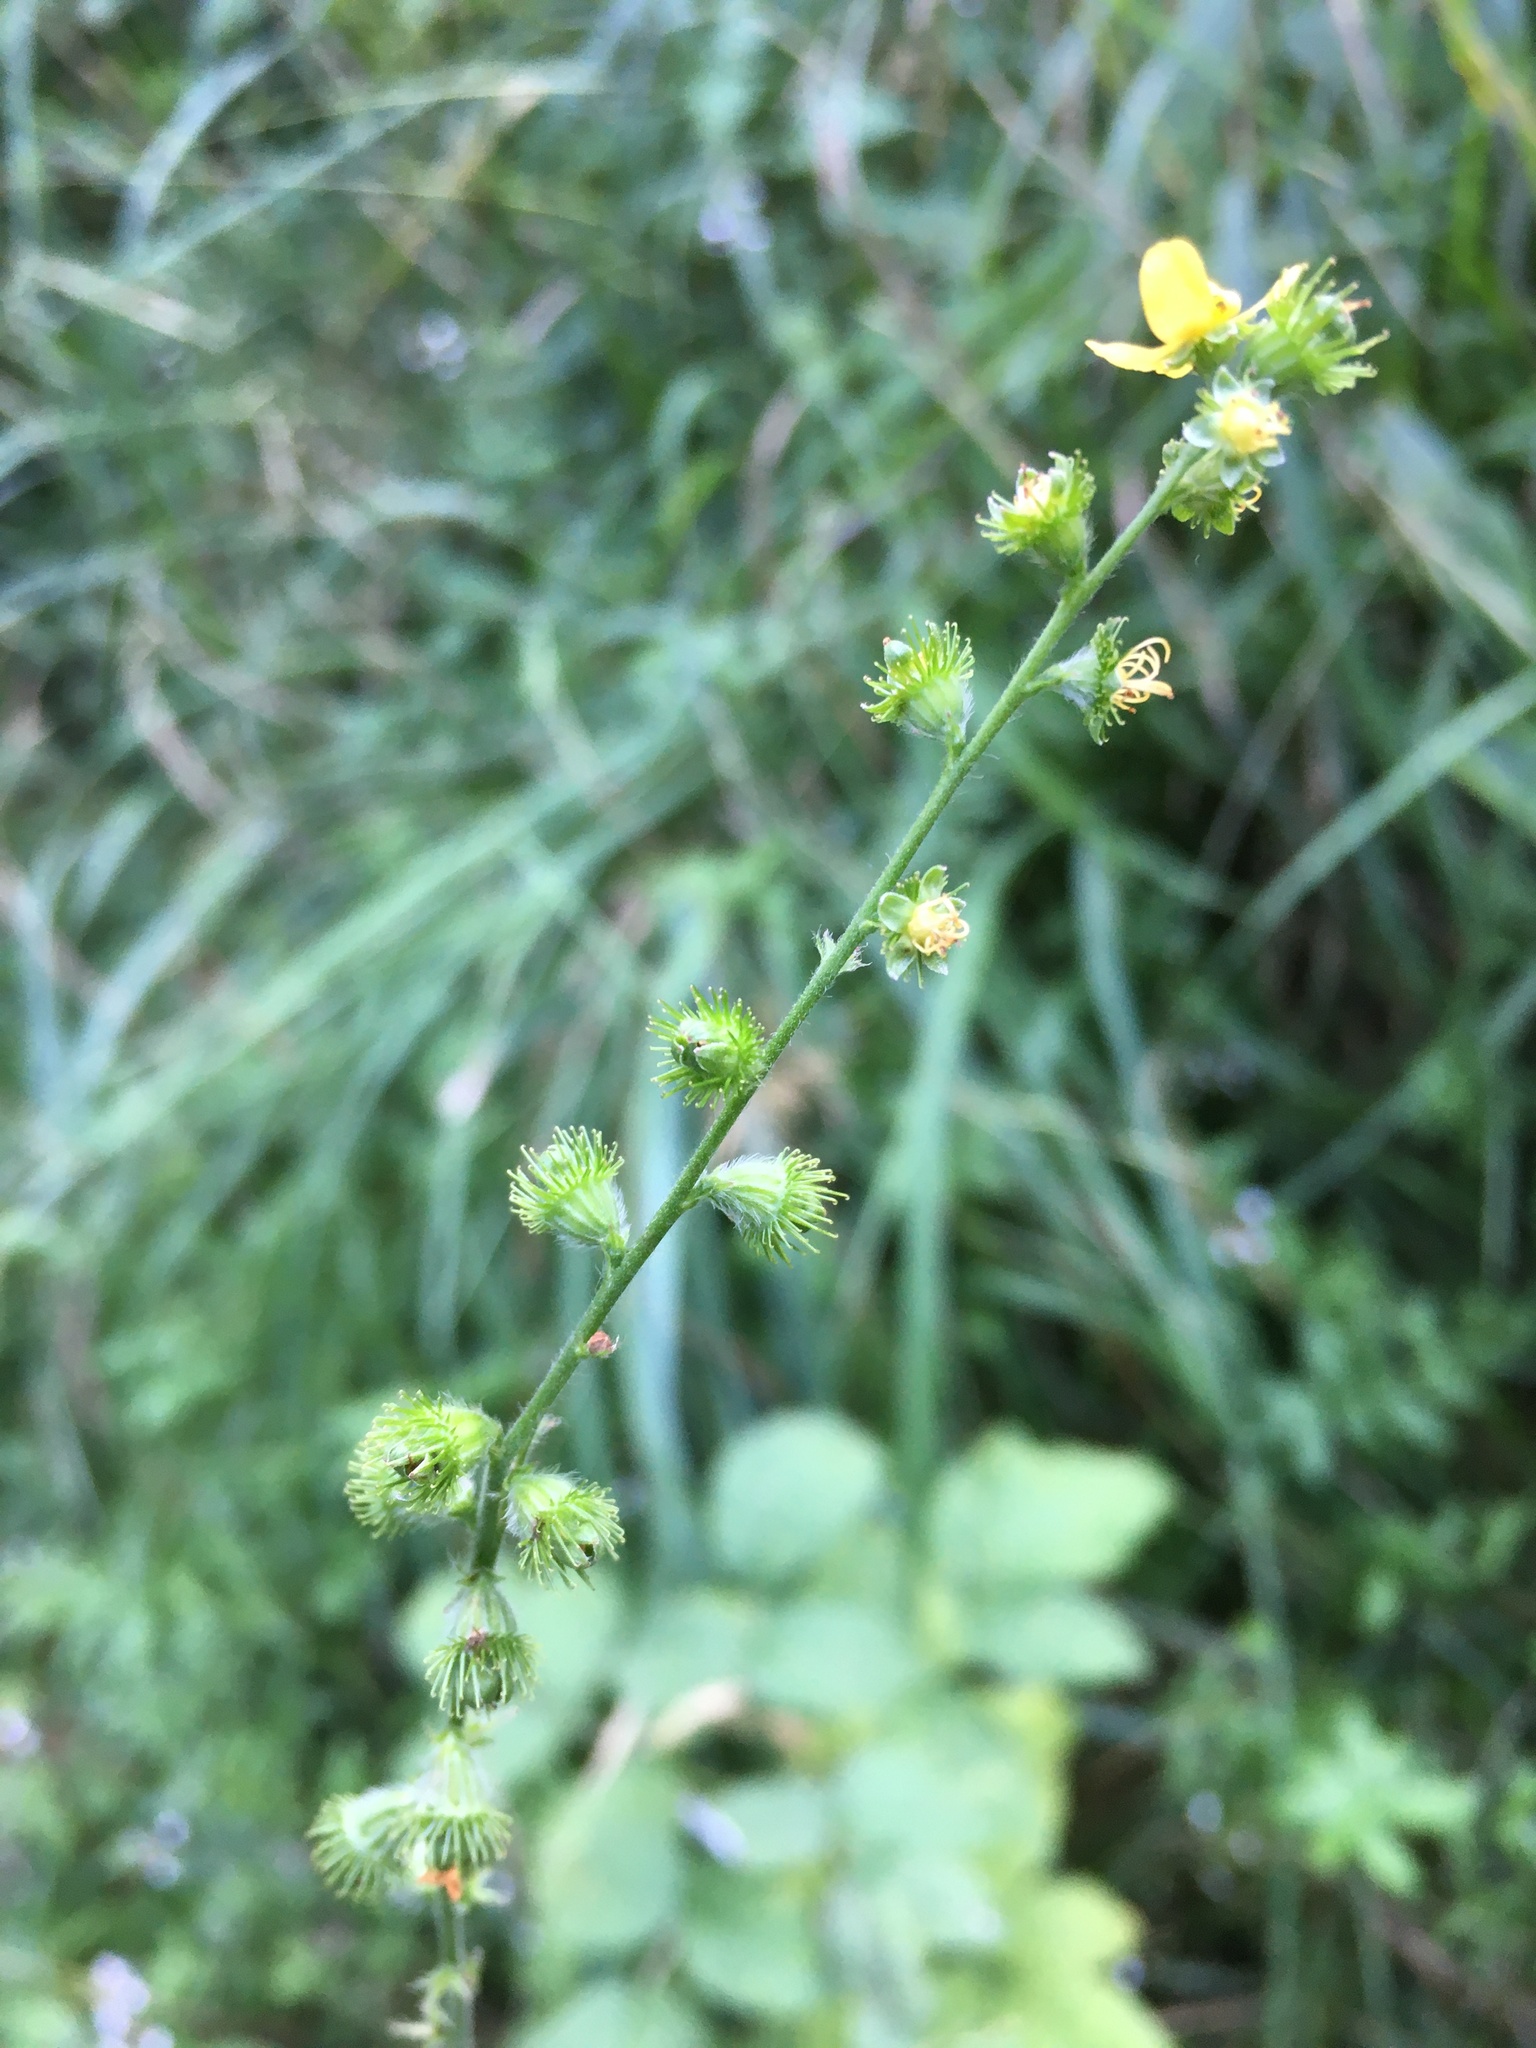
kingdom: Plantae
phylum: Tracheophyta
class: Magnoliopsida
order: Rosales
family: Rosaceae
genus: Agrimonia
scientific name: Agrimonia eupatoria
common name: Agrimony
